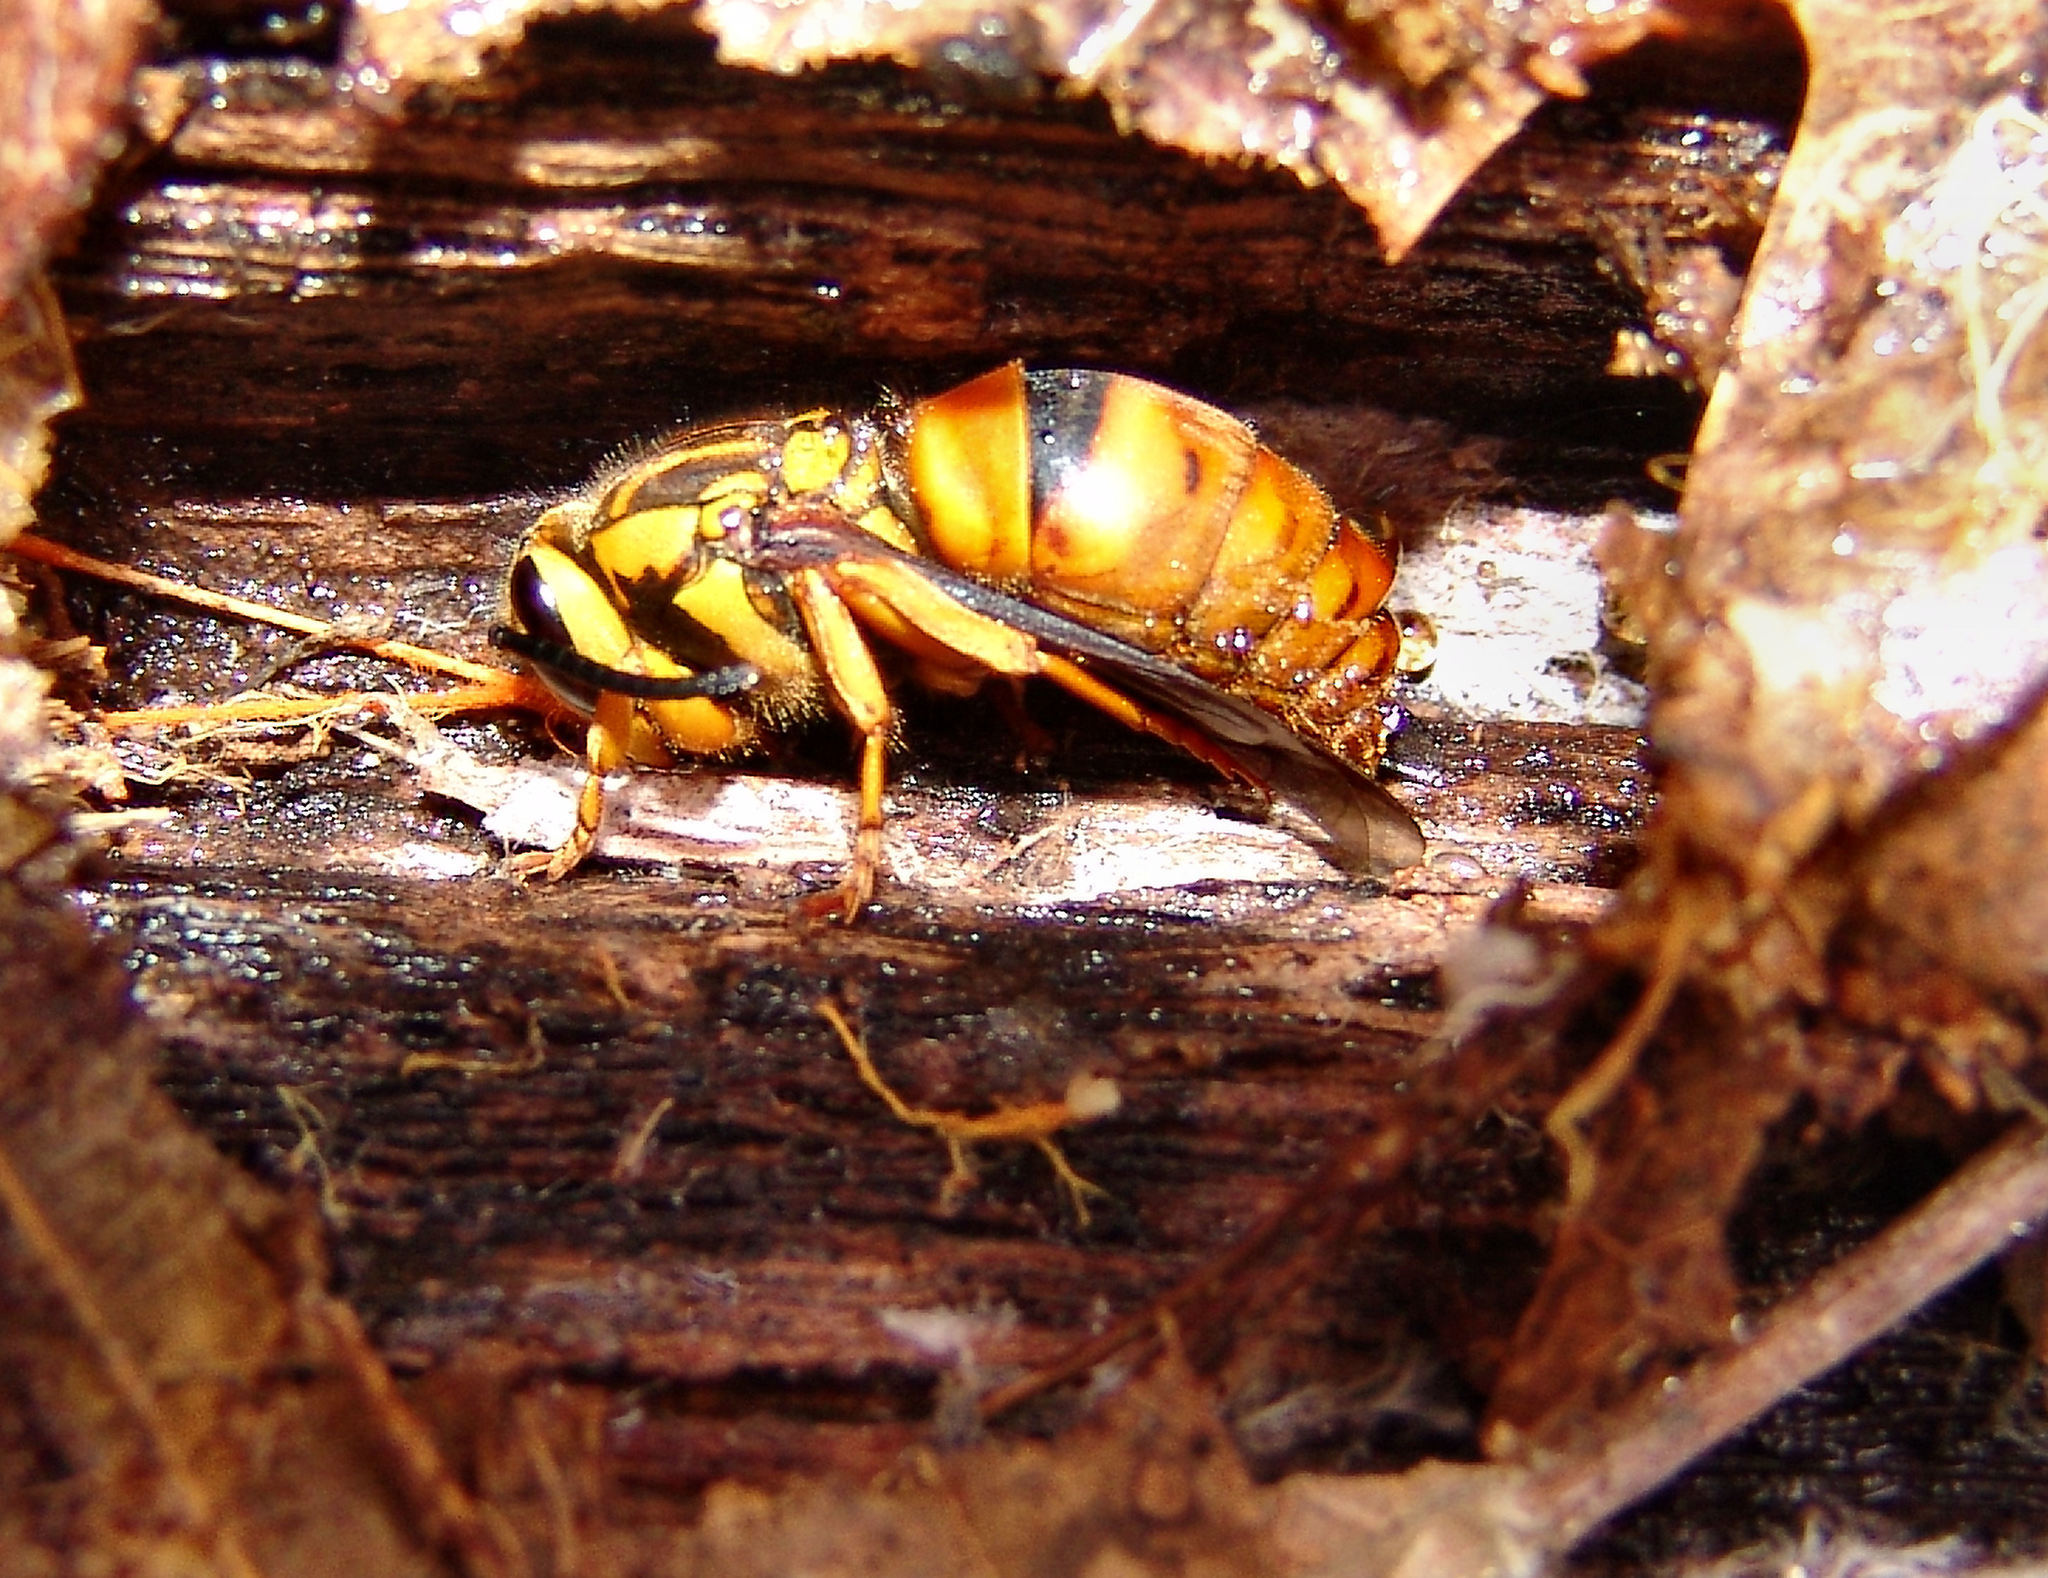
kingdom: Animalia
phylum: Arthropoda
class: Insecta
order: Hymenoptera
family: Vespidae
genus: Vespula
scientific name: Vespula squamosa
